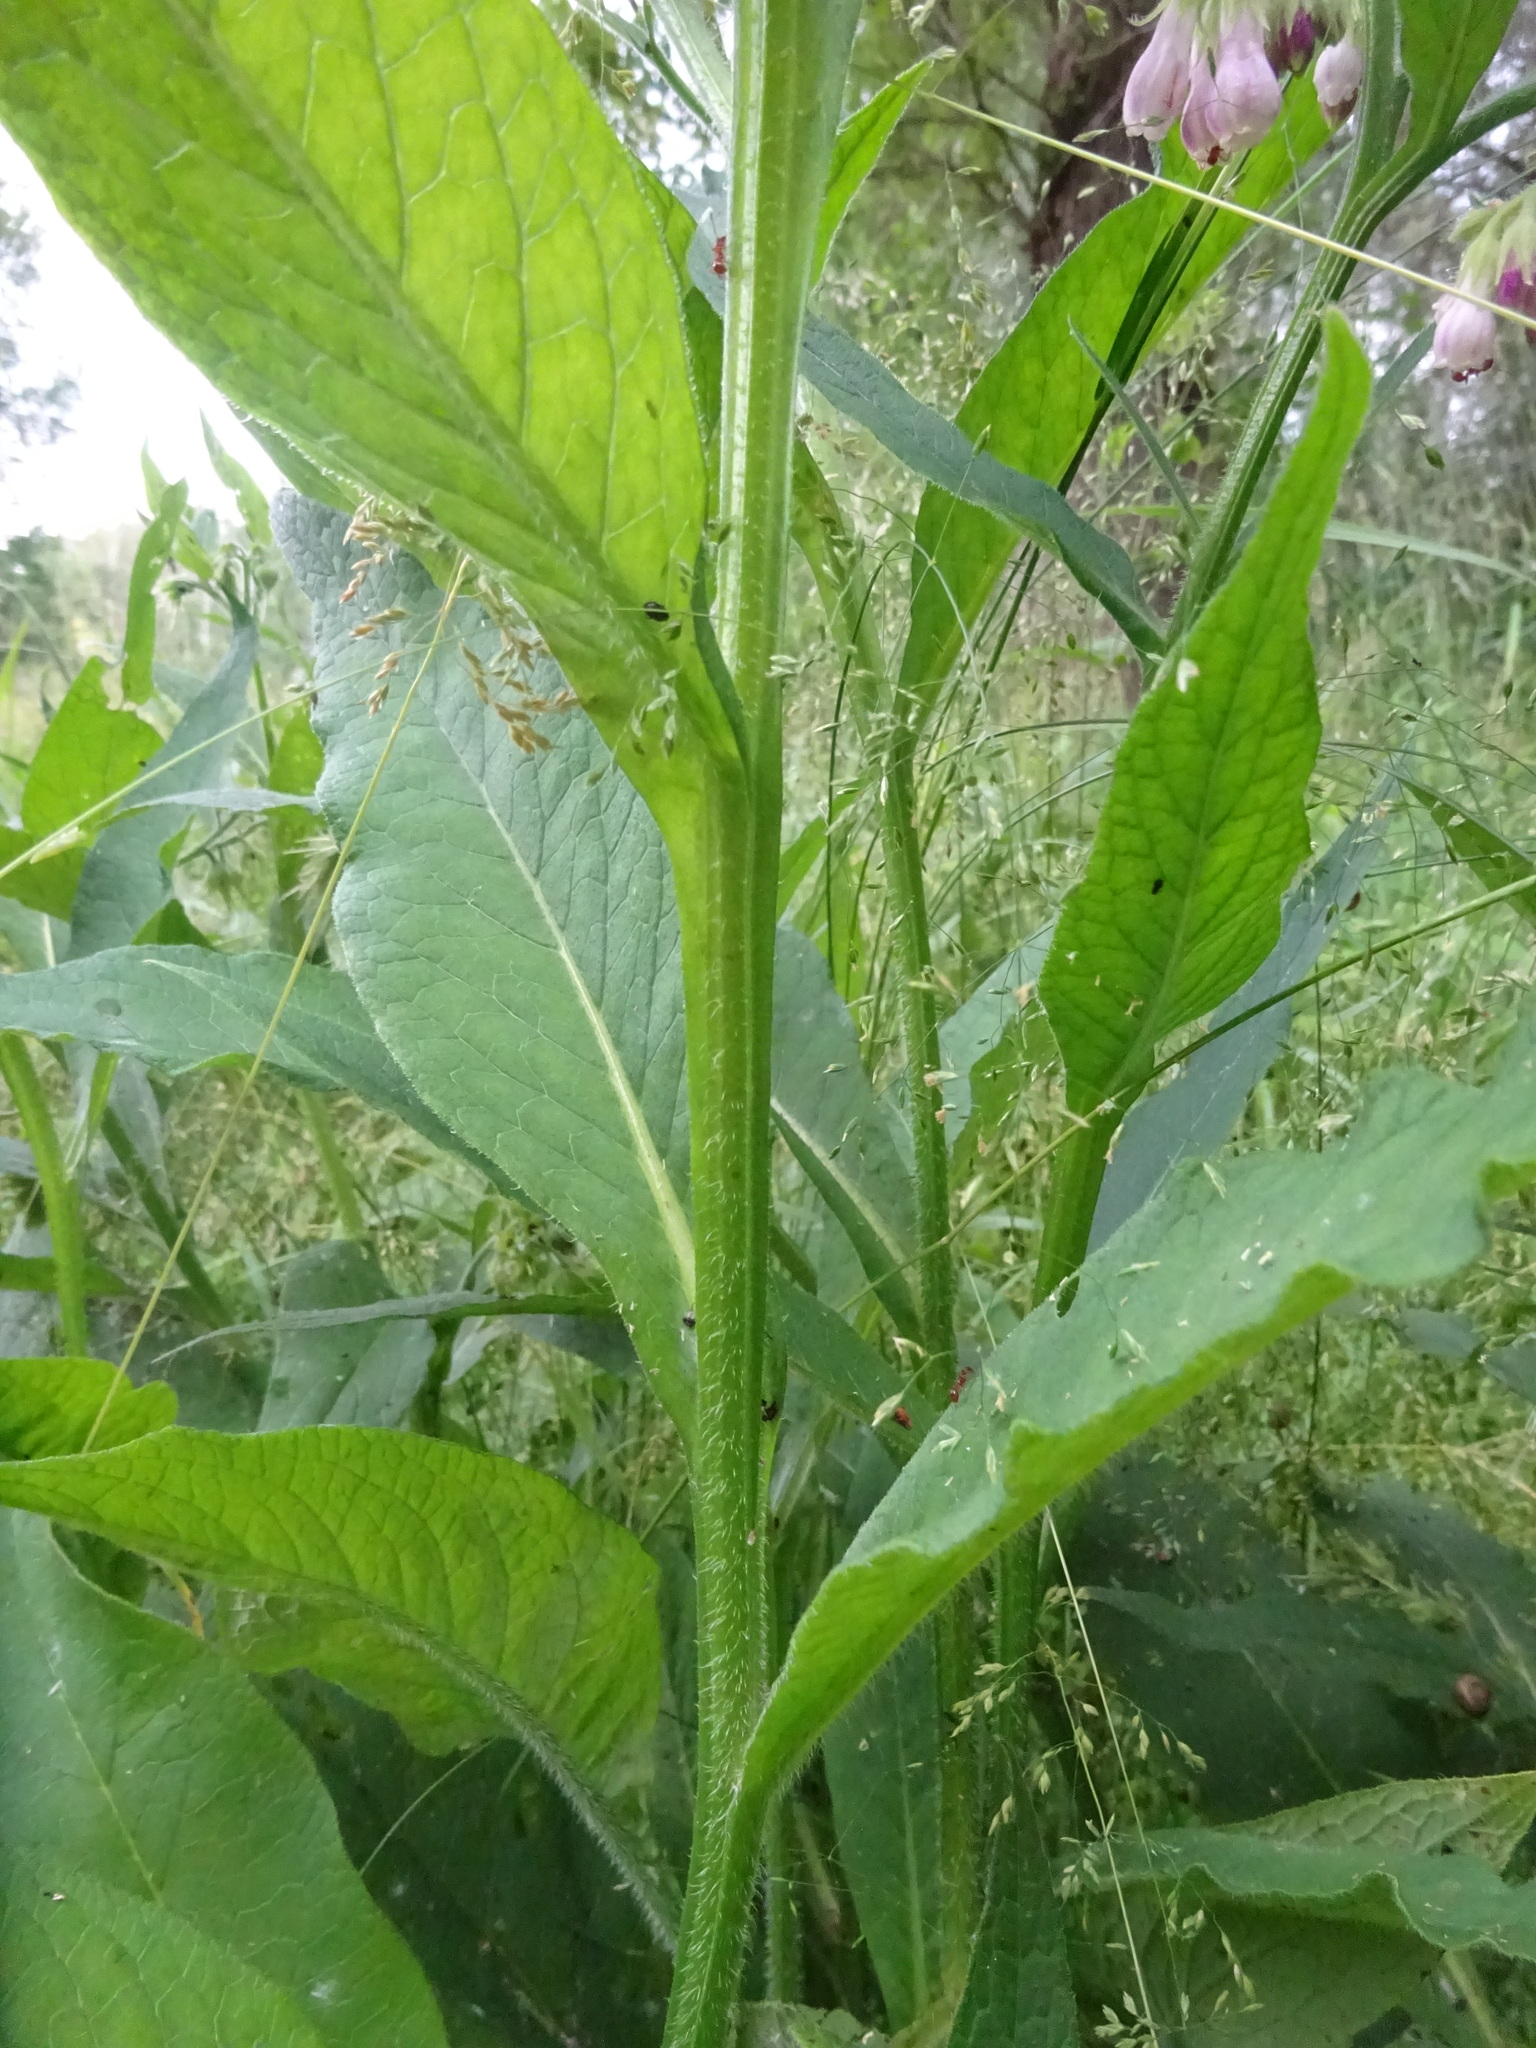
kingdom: Plantae
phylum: Tracheophyta
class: Magnoliopsida
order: Boraginales
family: Boraginaceae
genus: Symphytum
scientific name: Symphytum officinale
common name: Common comfrey
